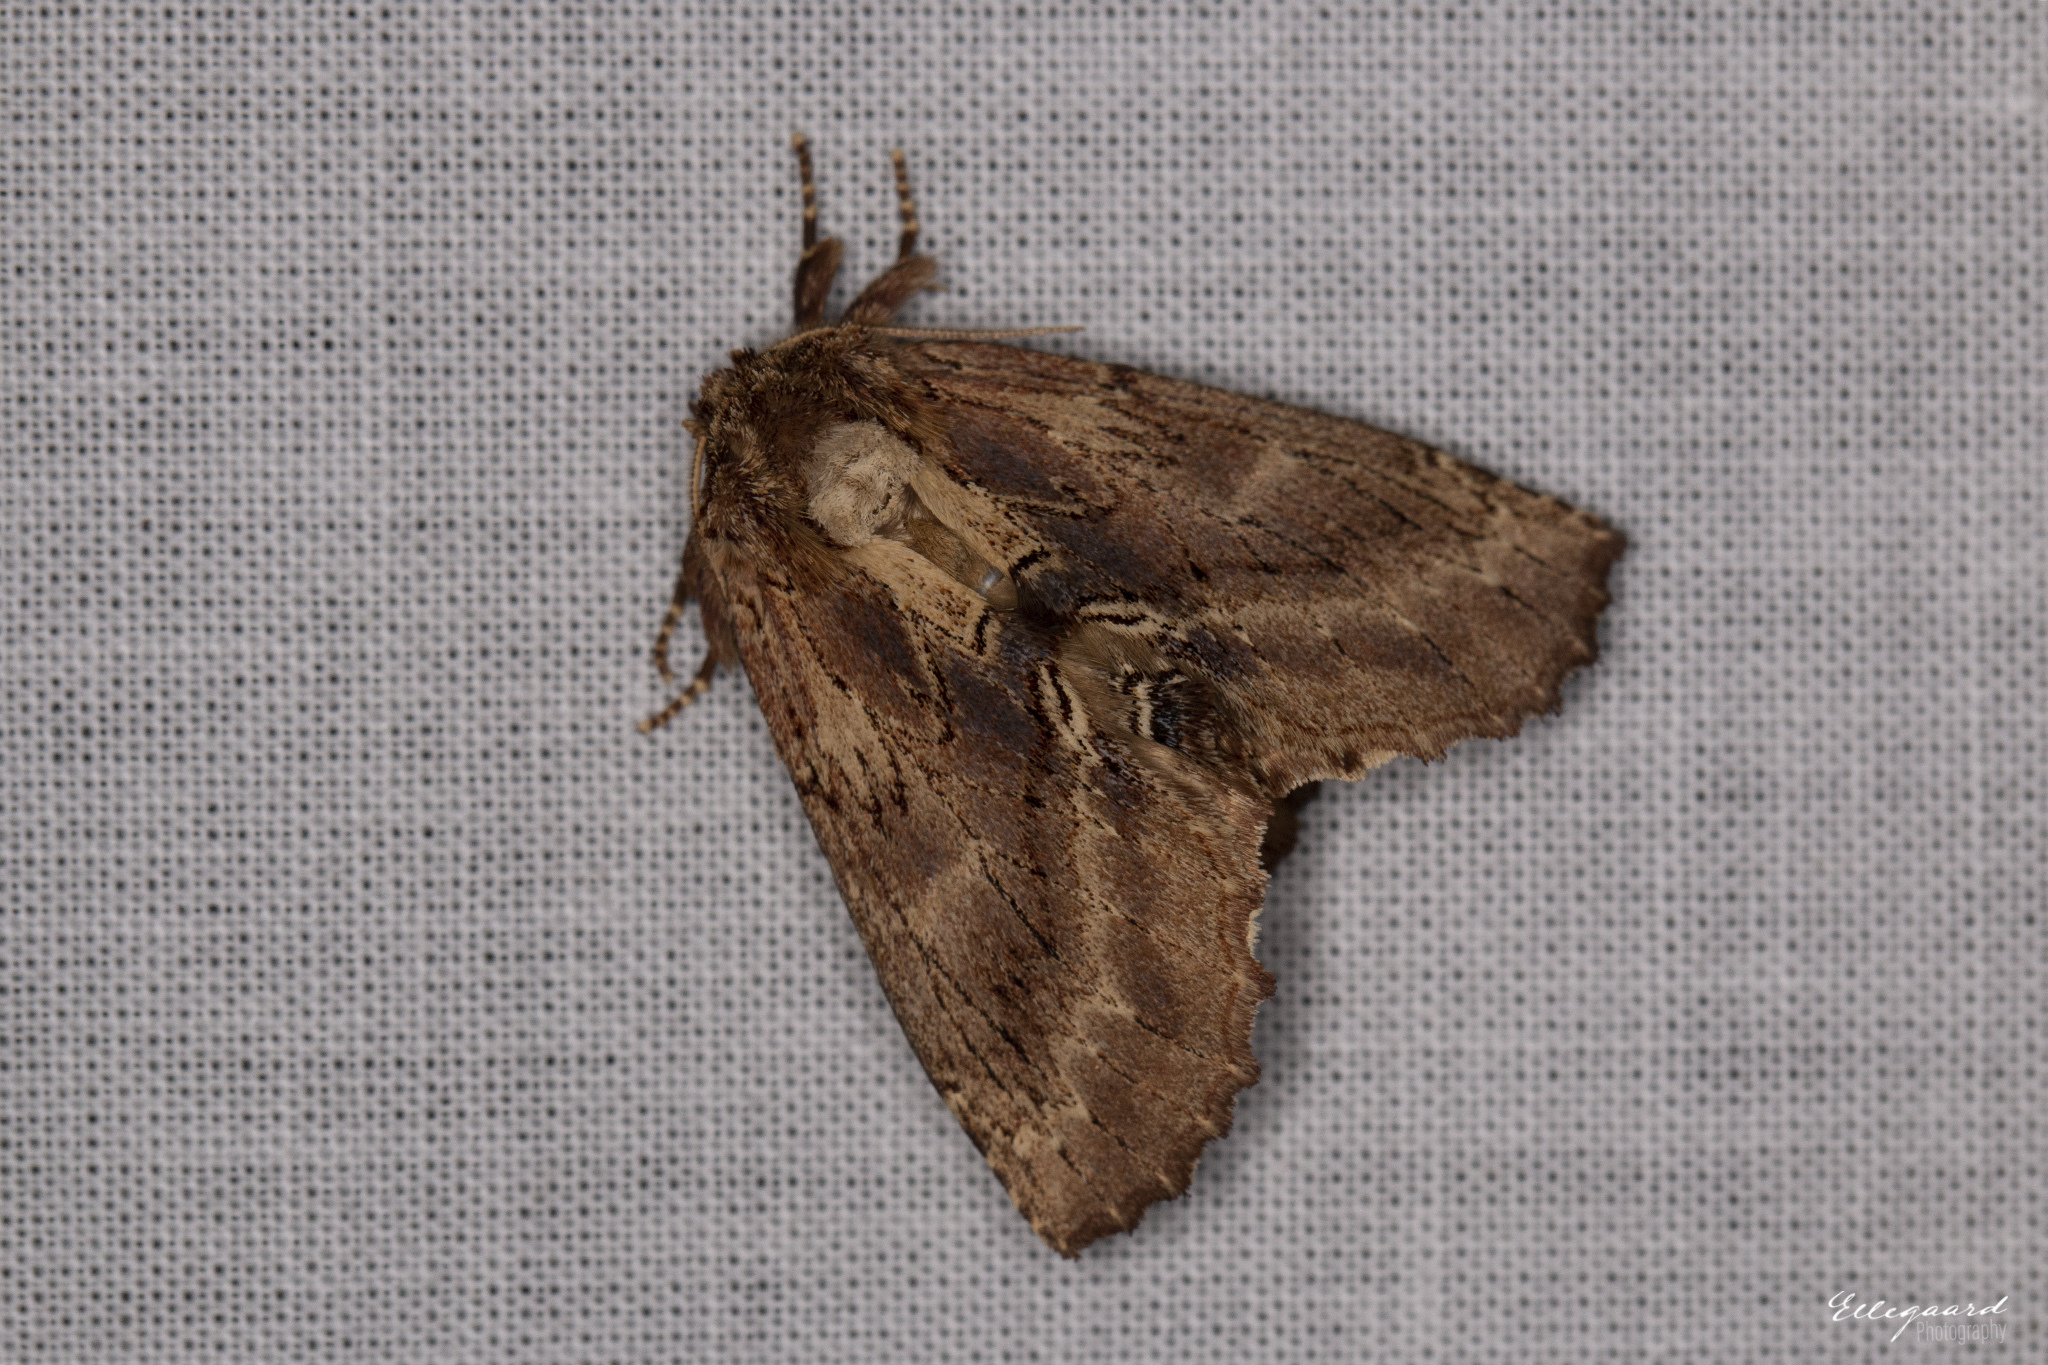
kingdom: Animalia
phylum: Arthropoda
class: Insecta
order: Lepidoptera
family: Notodontidae
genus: Ptilodon
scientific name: Ptilodon capucina
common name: Coxcomb prominent
